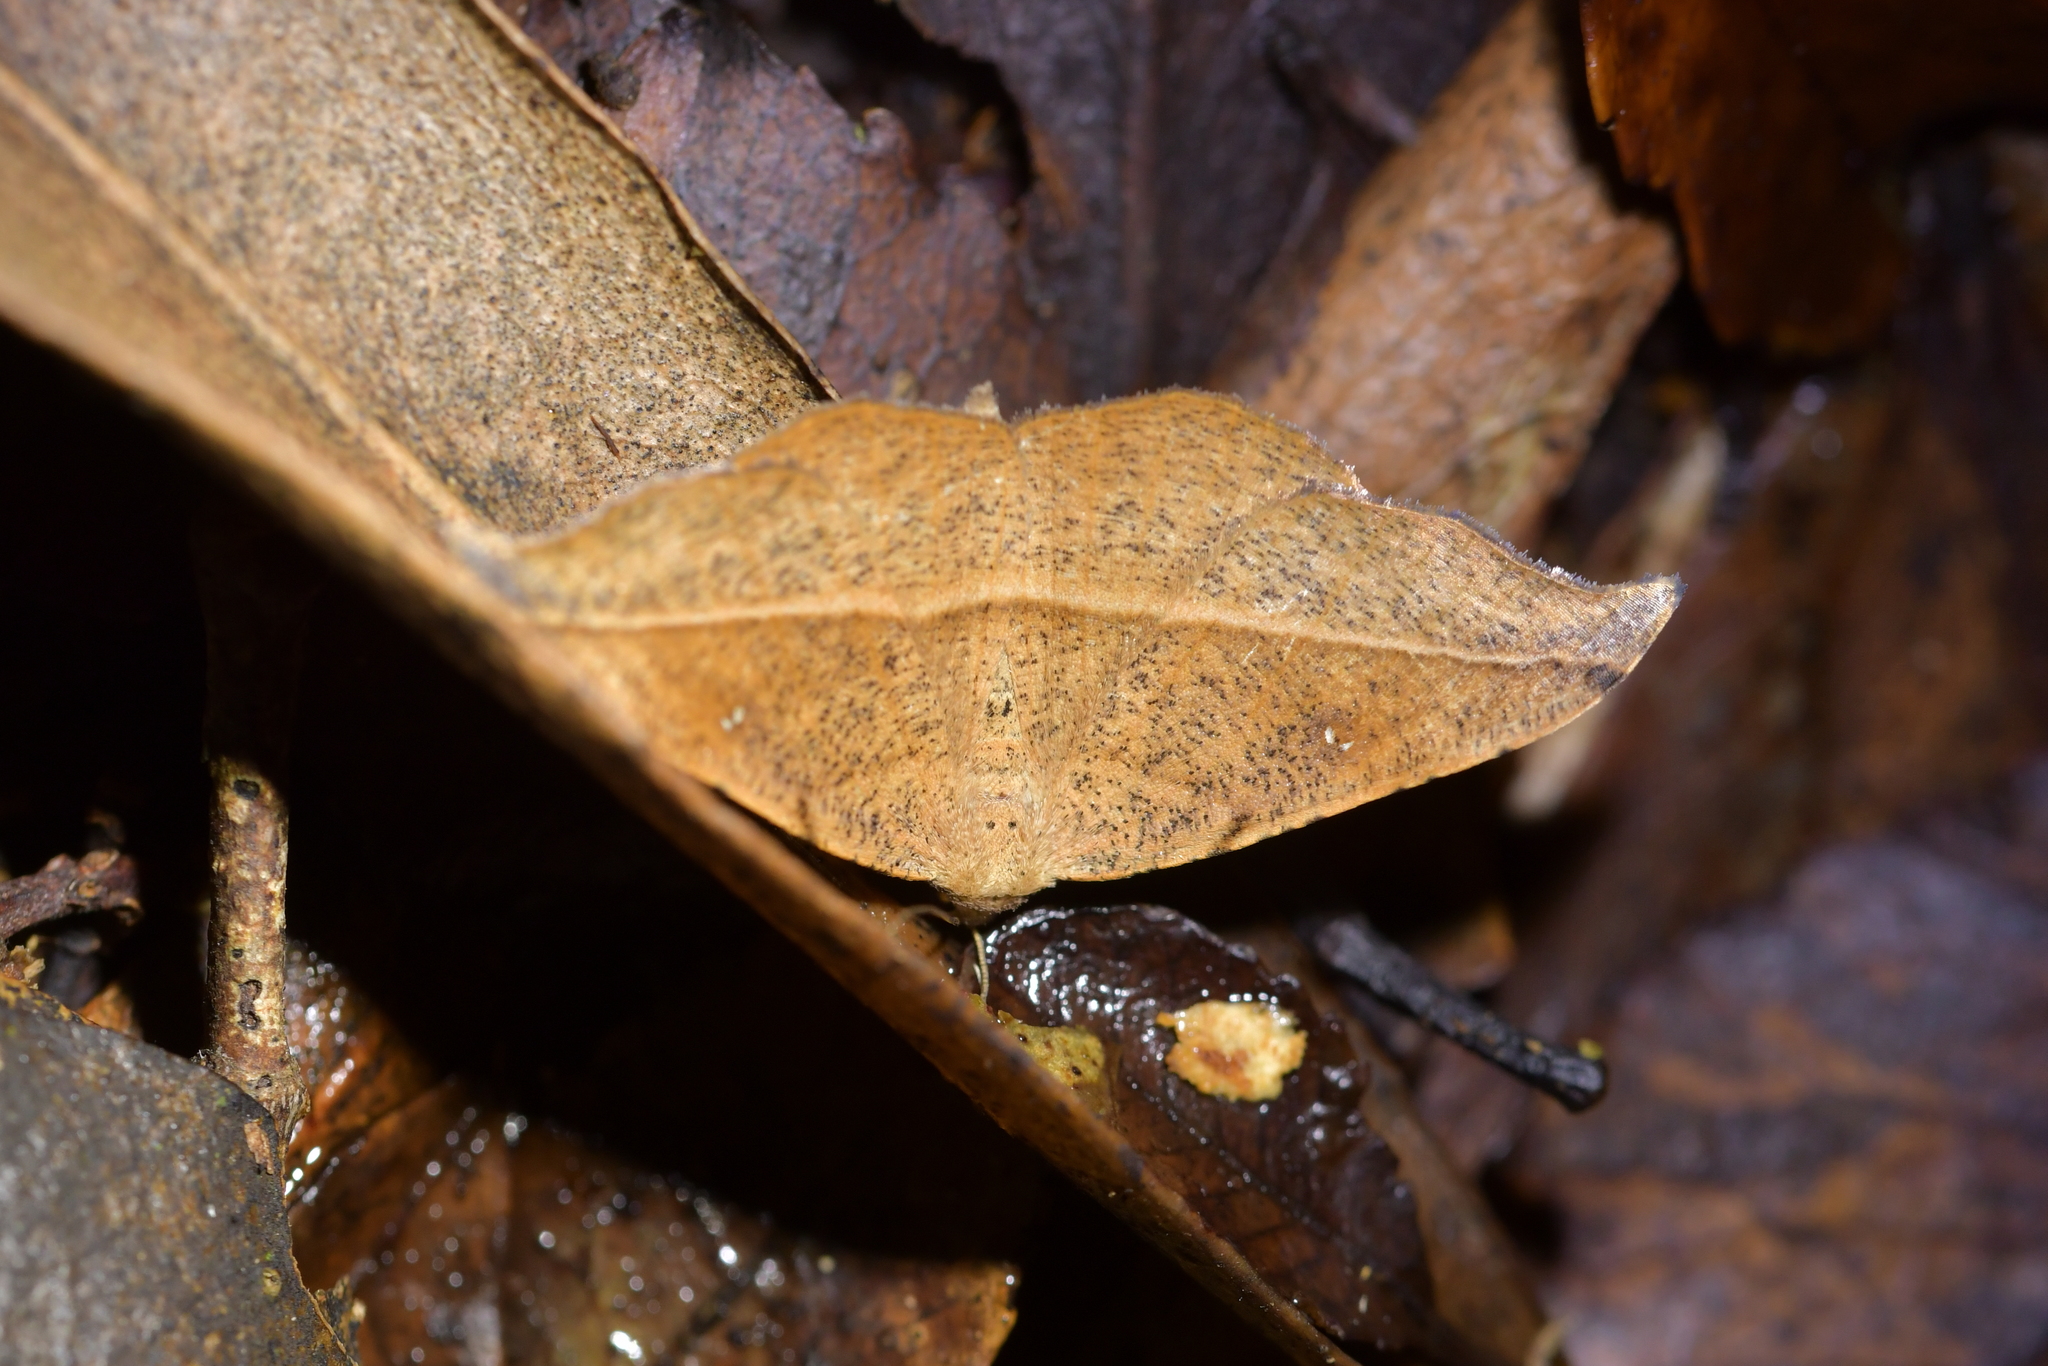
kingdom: Animalia
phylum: Arthropoda
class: Insecta
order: Lepidoptera
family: Geometridae
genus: Sarisa
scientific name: Sarisa muriferata
